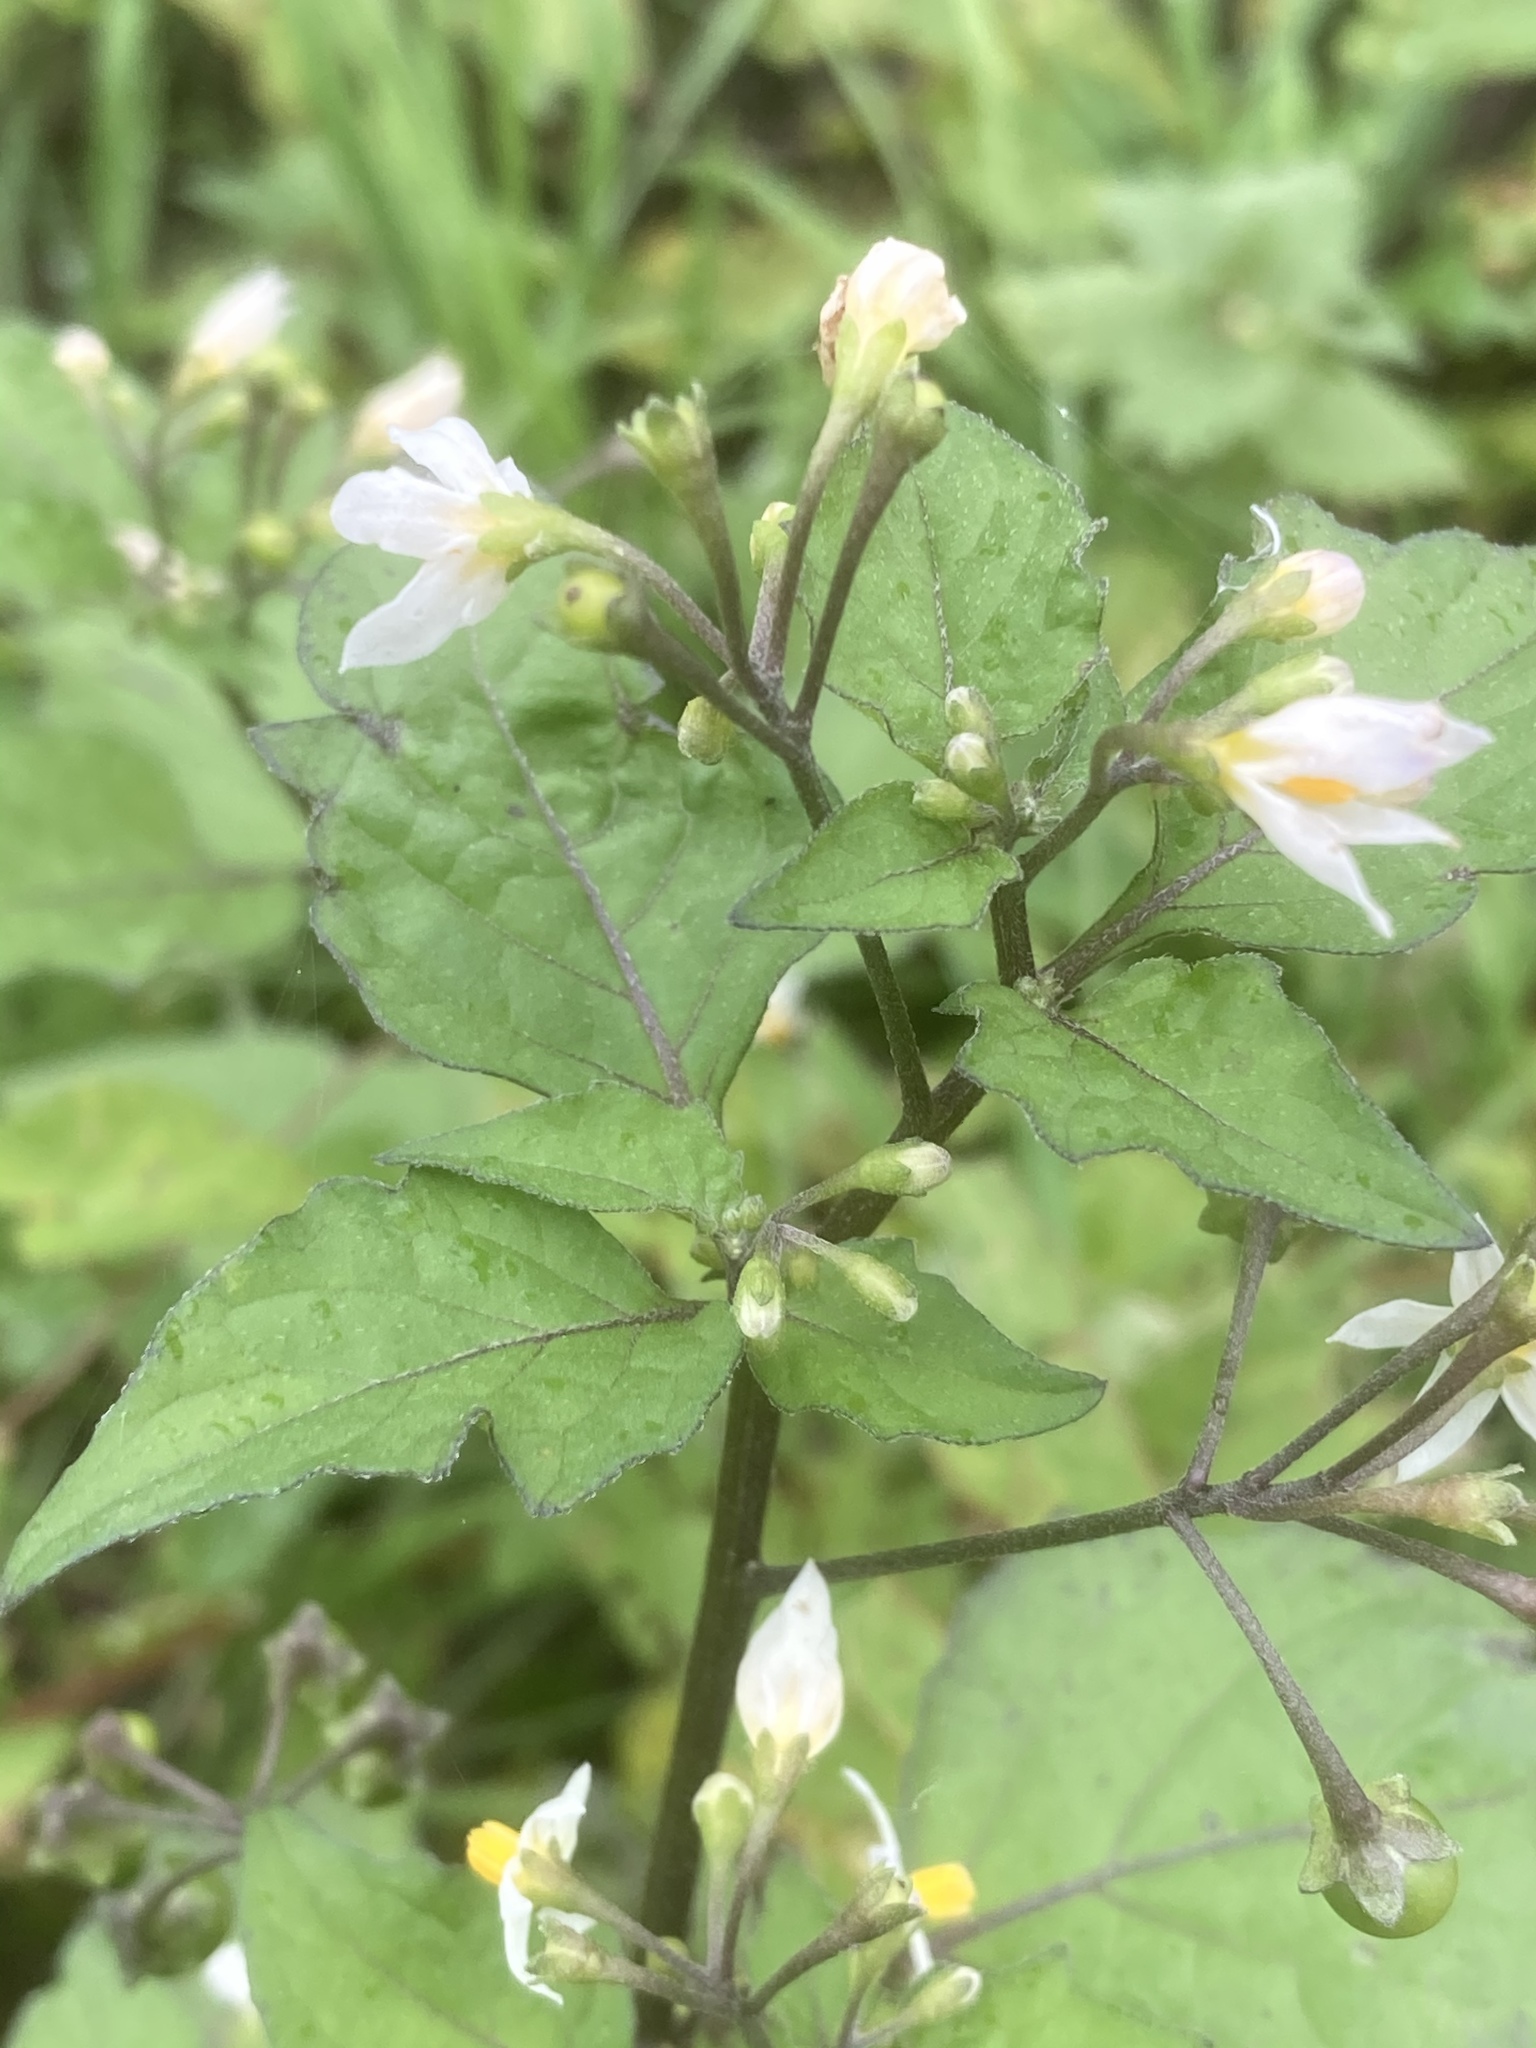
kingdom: Plantae
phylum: Tracheophyta
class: Magnoliopsida
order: Solanales
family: Solanaceae
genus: Solanum
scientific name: Solanum nigrum
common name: Black nightshade
